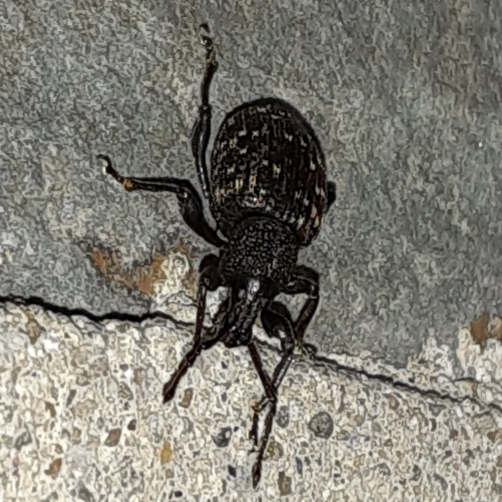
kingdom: Animalia
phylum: Arthropoda
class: Insecta
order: Coleoptera
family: Curculionidae
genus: Otiorhynchus
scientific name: Otiorhynchus sulcatus
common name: Black vine weevil
